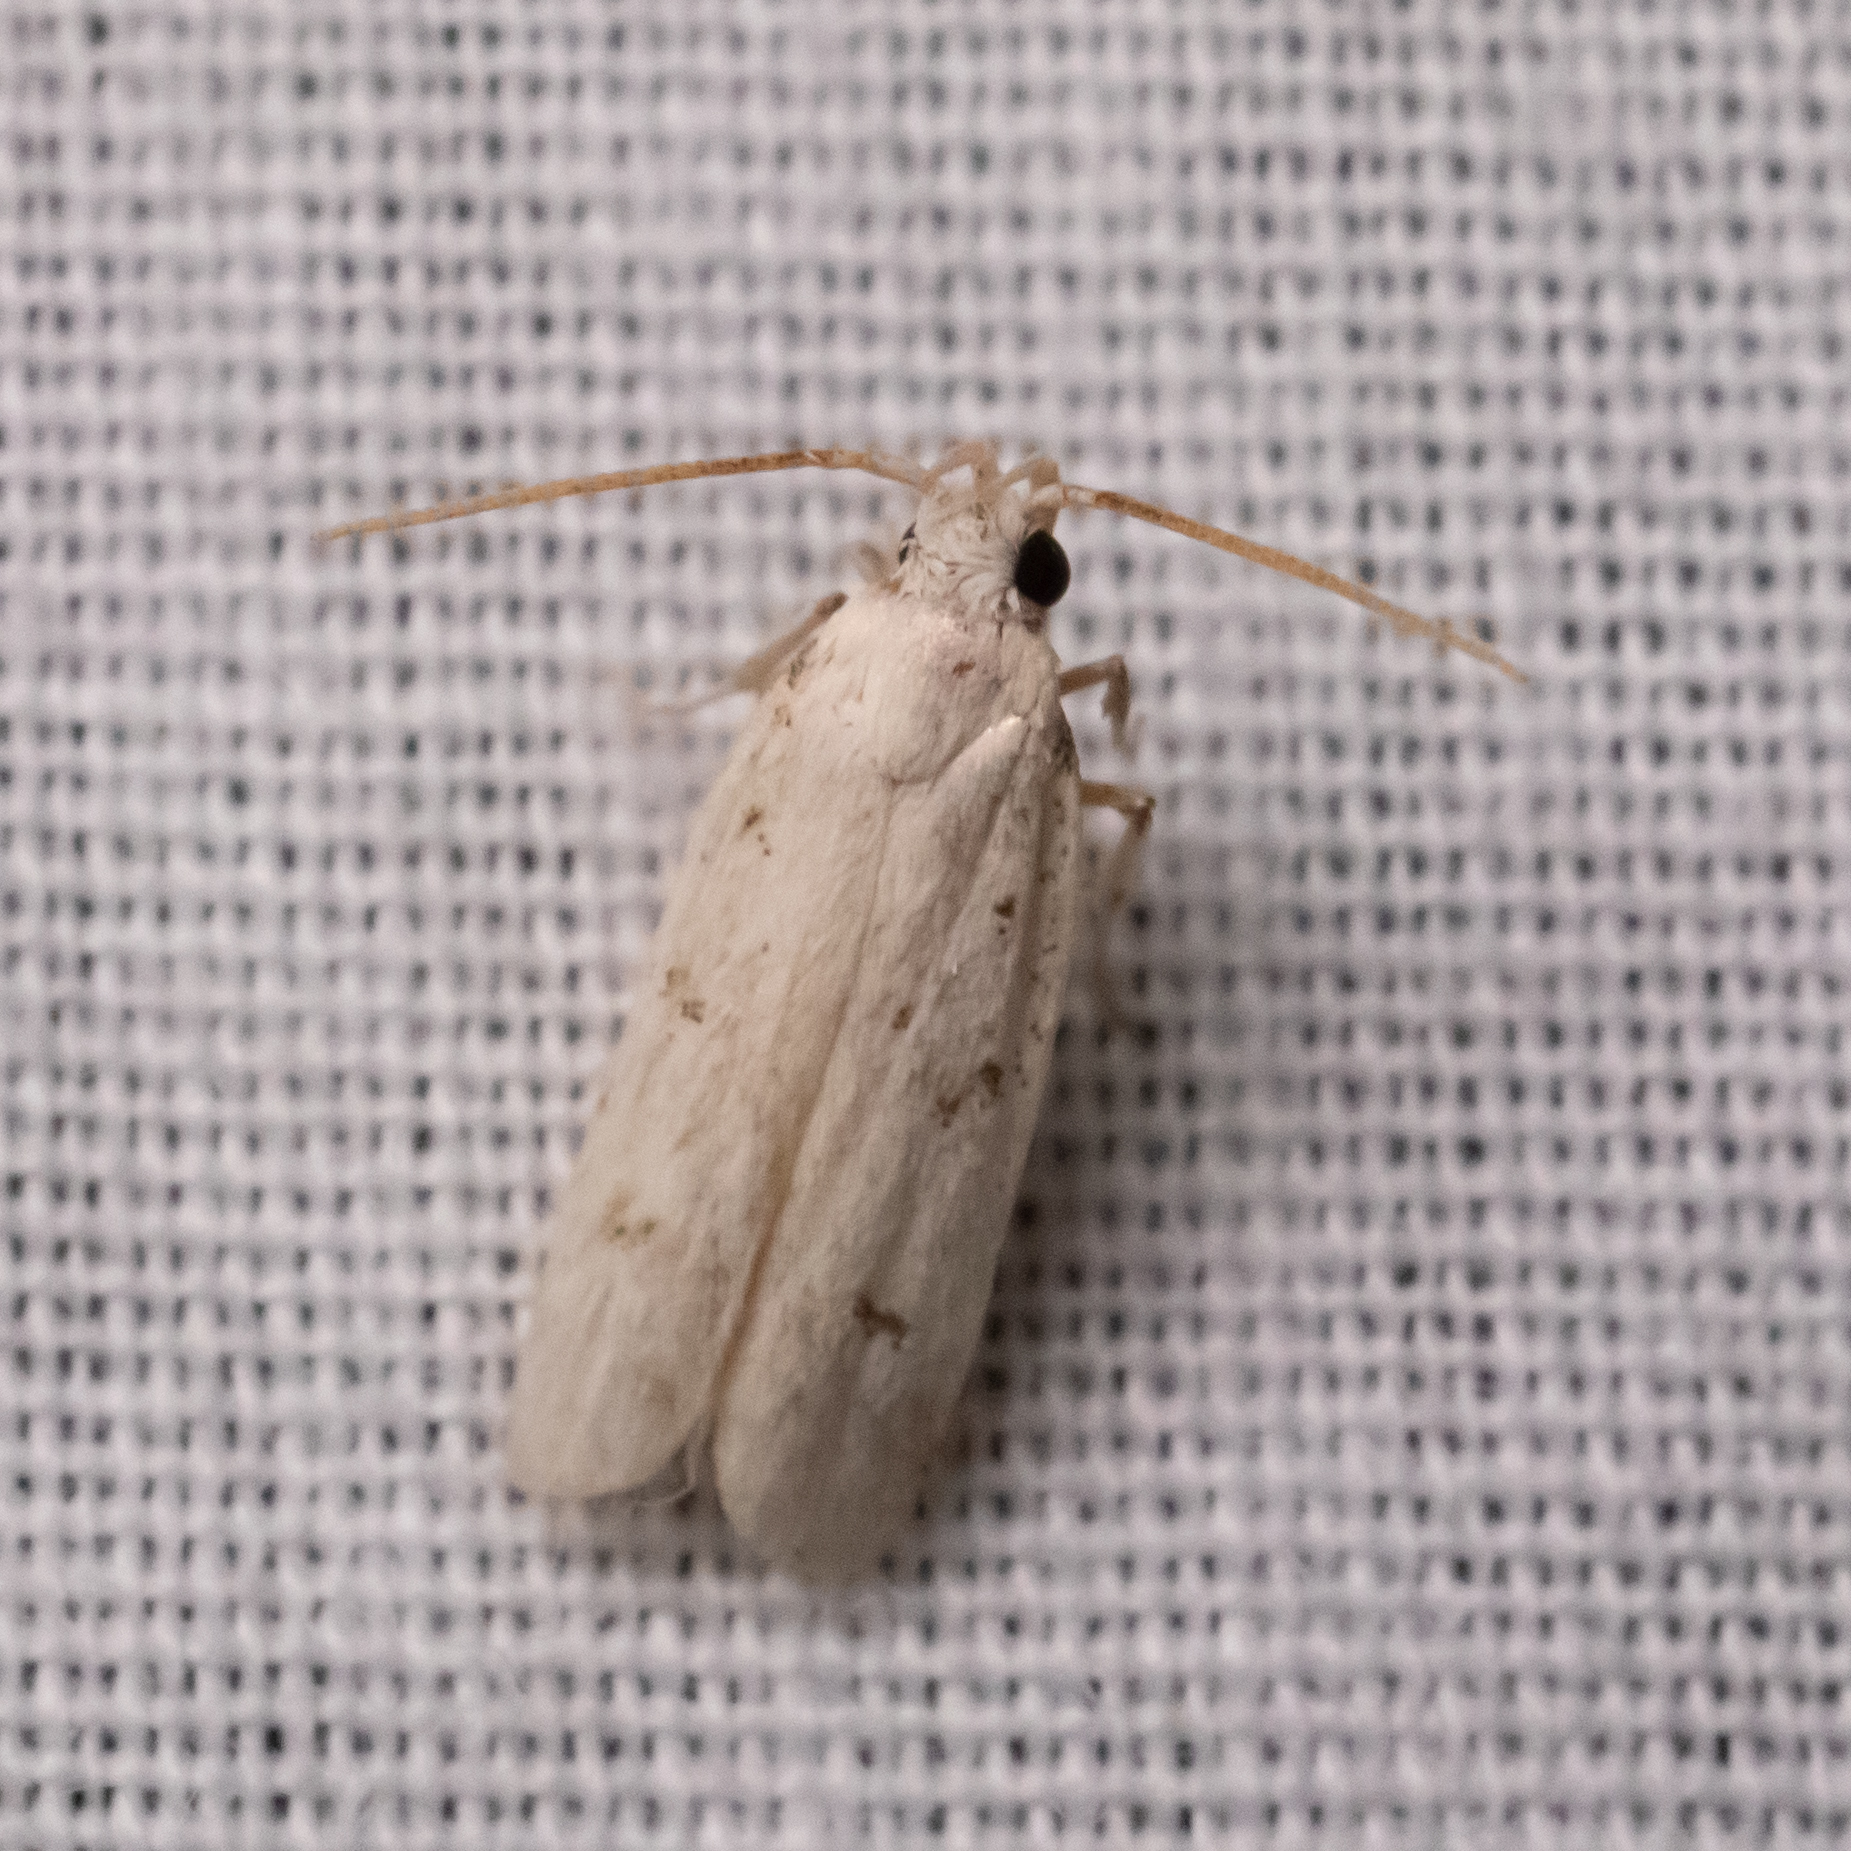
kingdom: Animalia
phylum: Arthropoda
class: Insecta
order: Lepidoptera
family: Autostichidae
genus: Glyphidocera
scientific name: Glyphidocera lactiflosella
